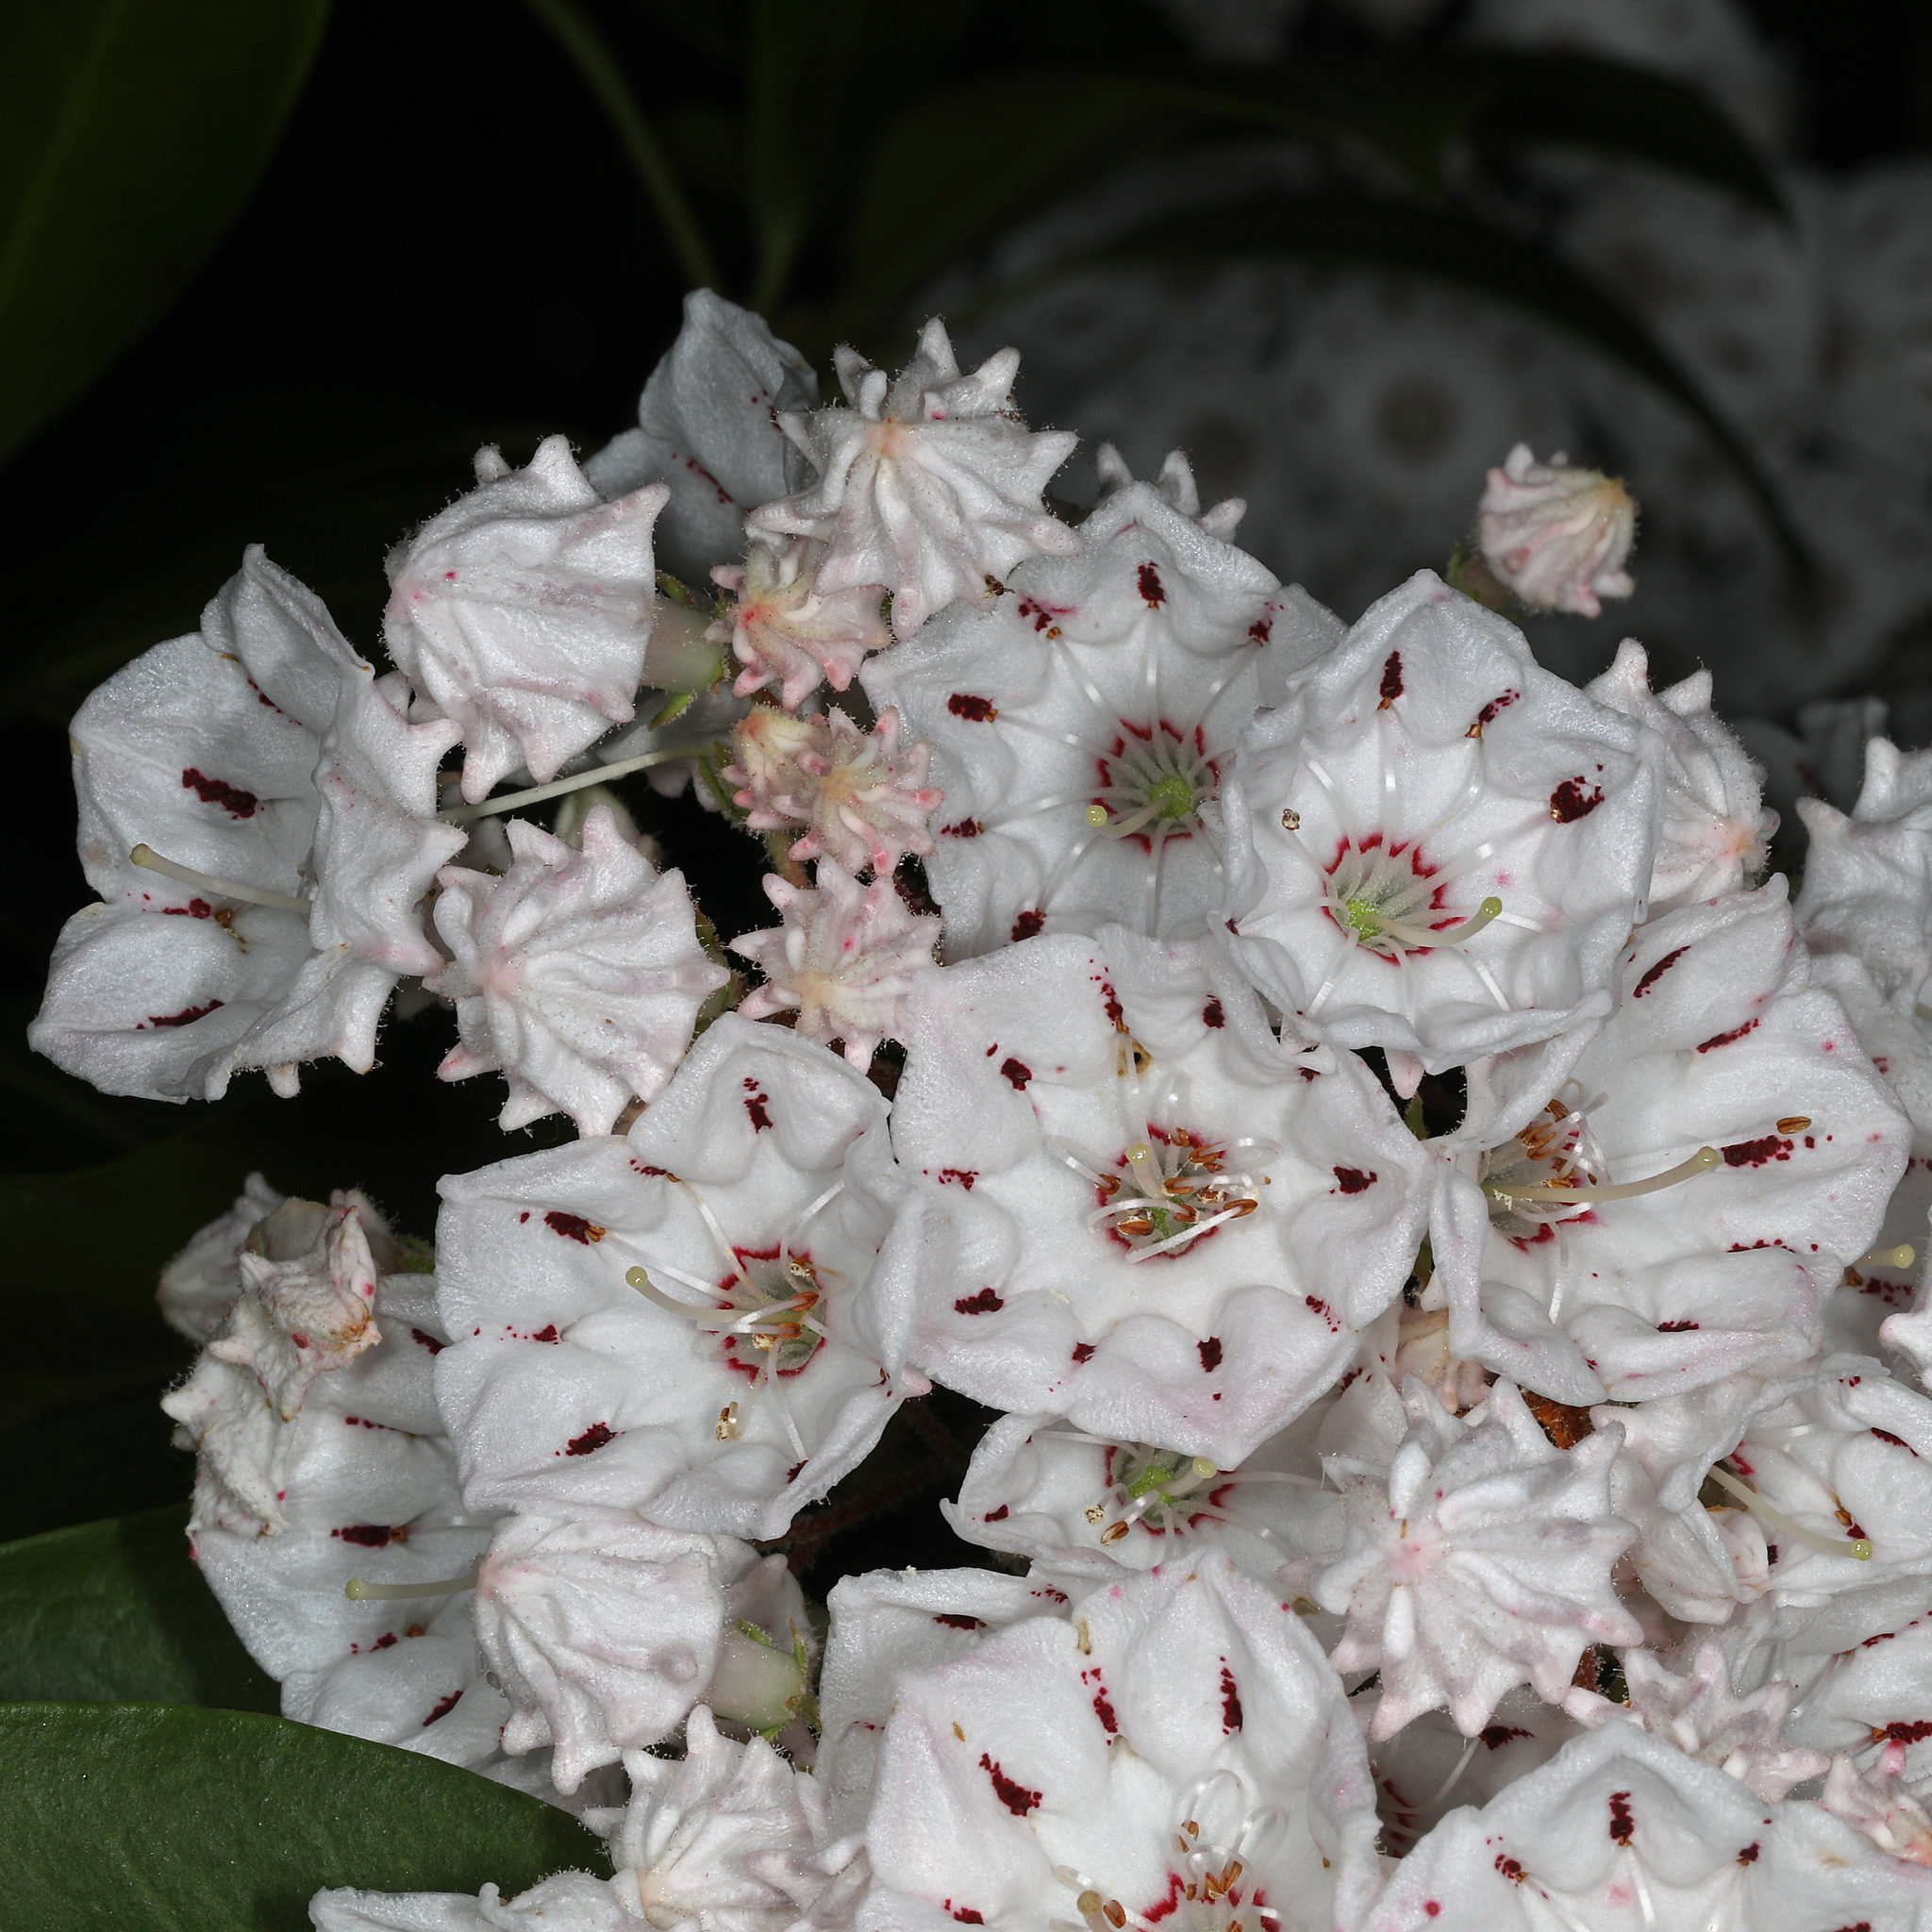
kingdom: Plantae
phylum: Tracheophyta
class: Magnoliopsida
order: Ericales
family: Ericaceae
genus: Kalmia
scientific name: Kalmia latifolia
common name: Mountain-laurel
